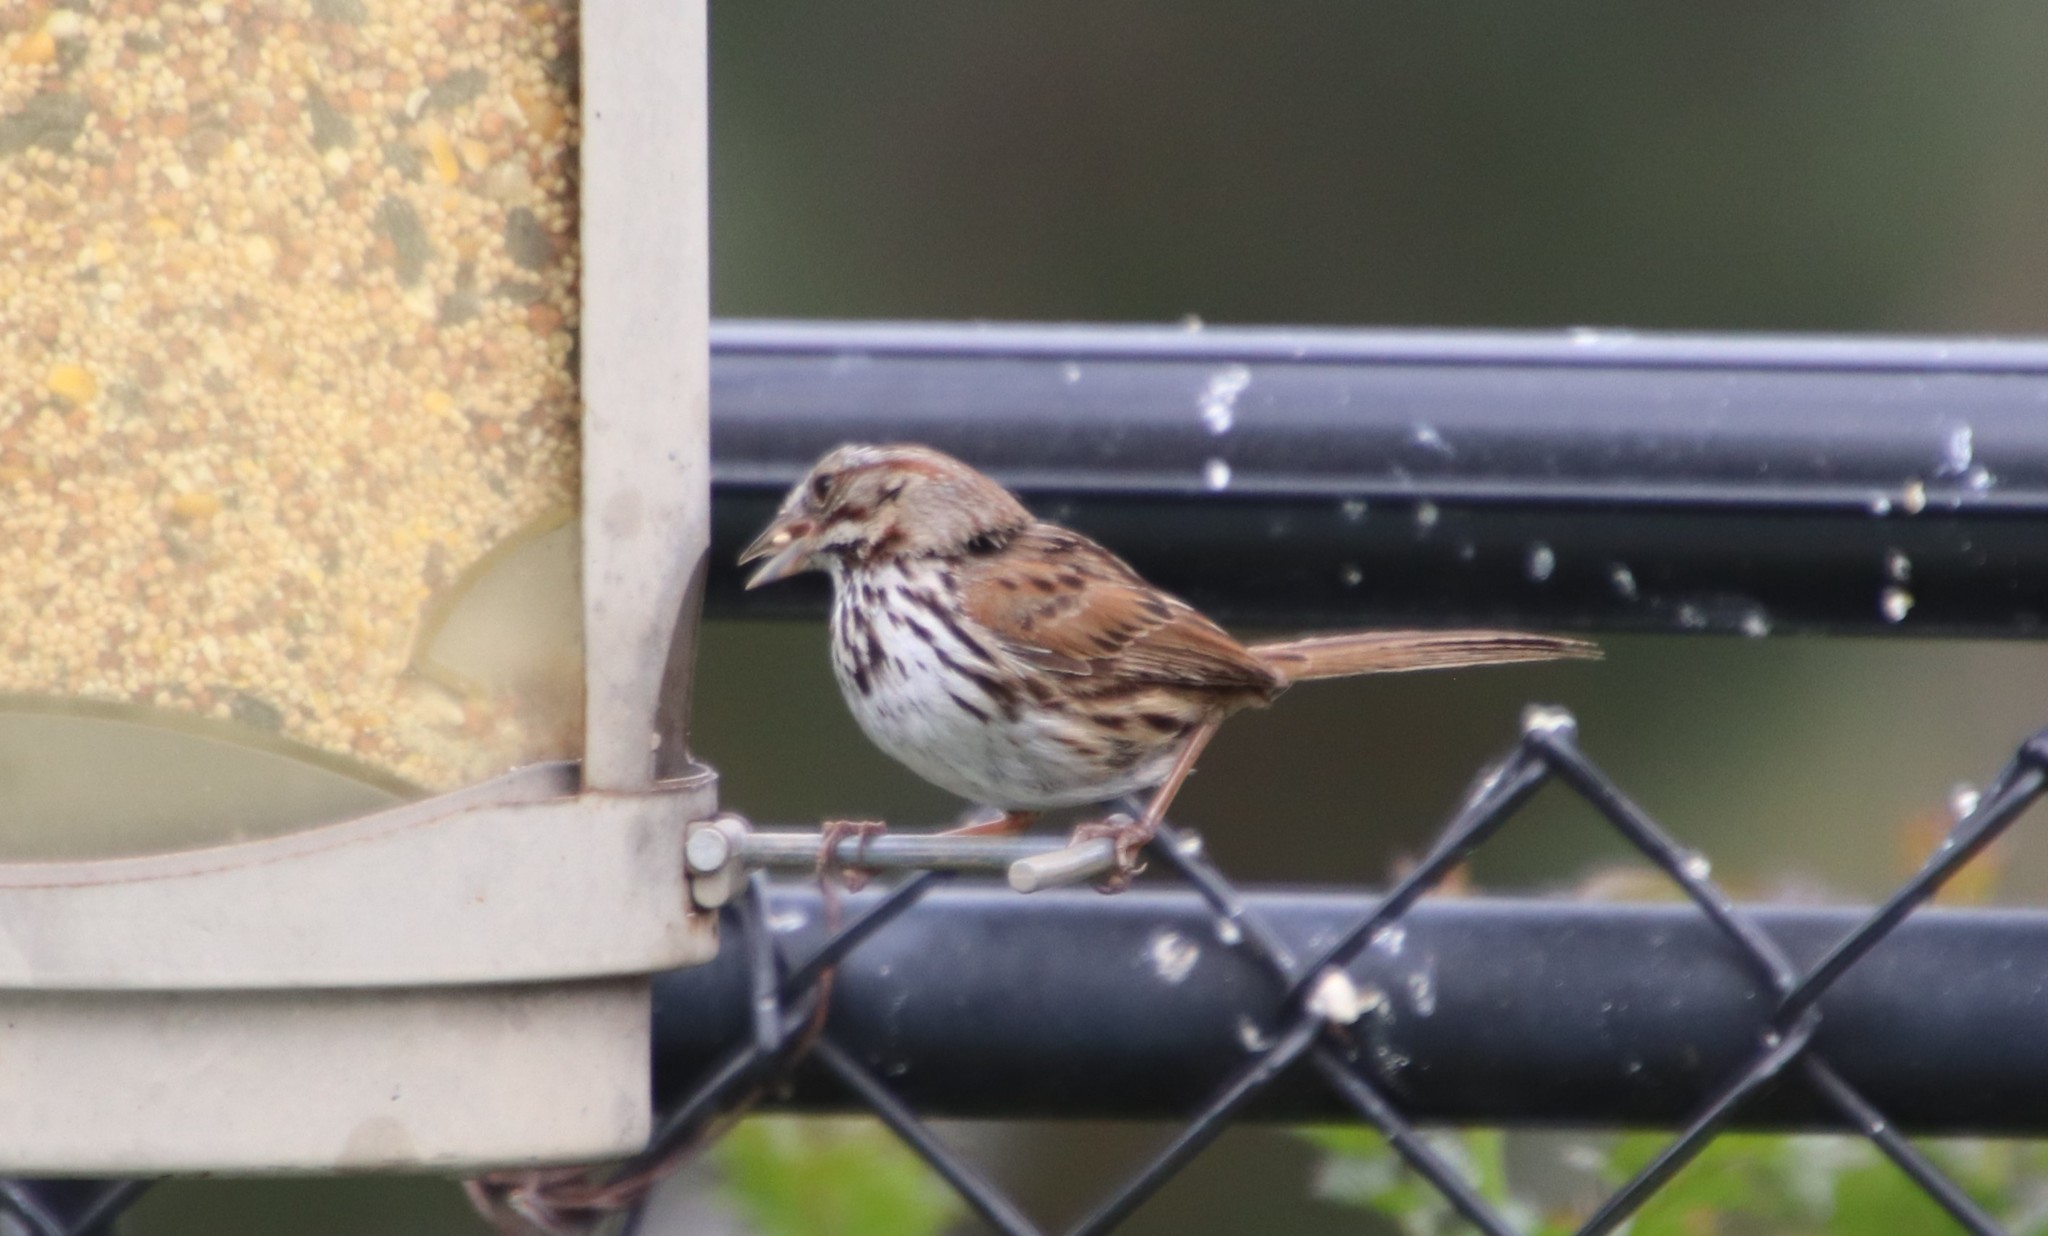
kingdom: Animalia
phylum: Chordata
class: Aves
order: Passeriformes
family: Passerellidae
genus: Melospiza
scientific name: Melospiza melodia
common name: Song sparrow
